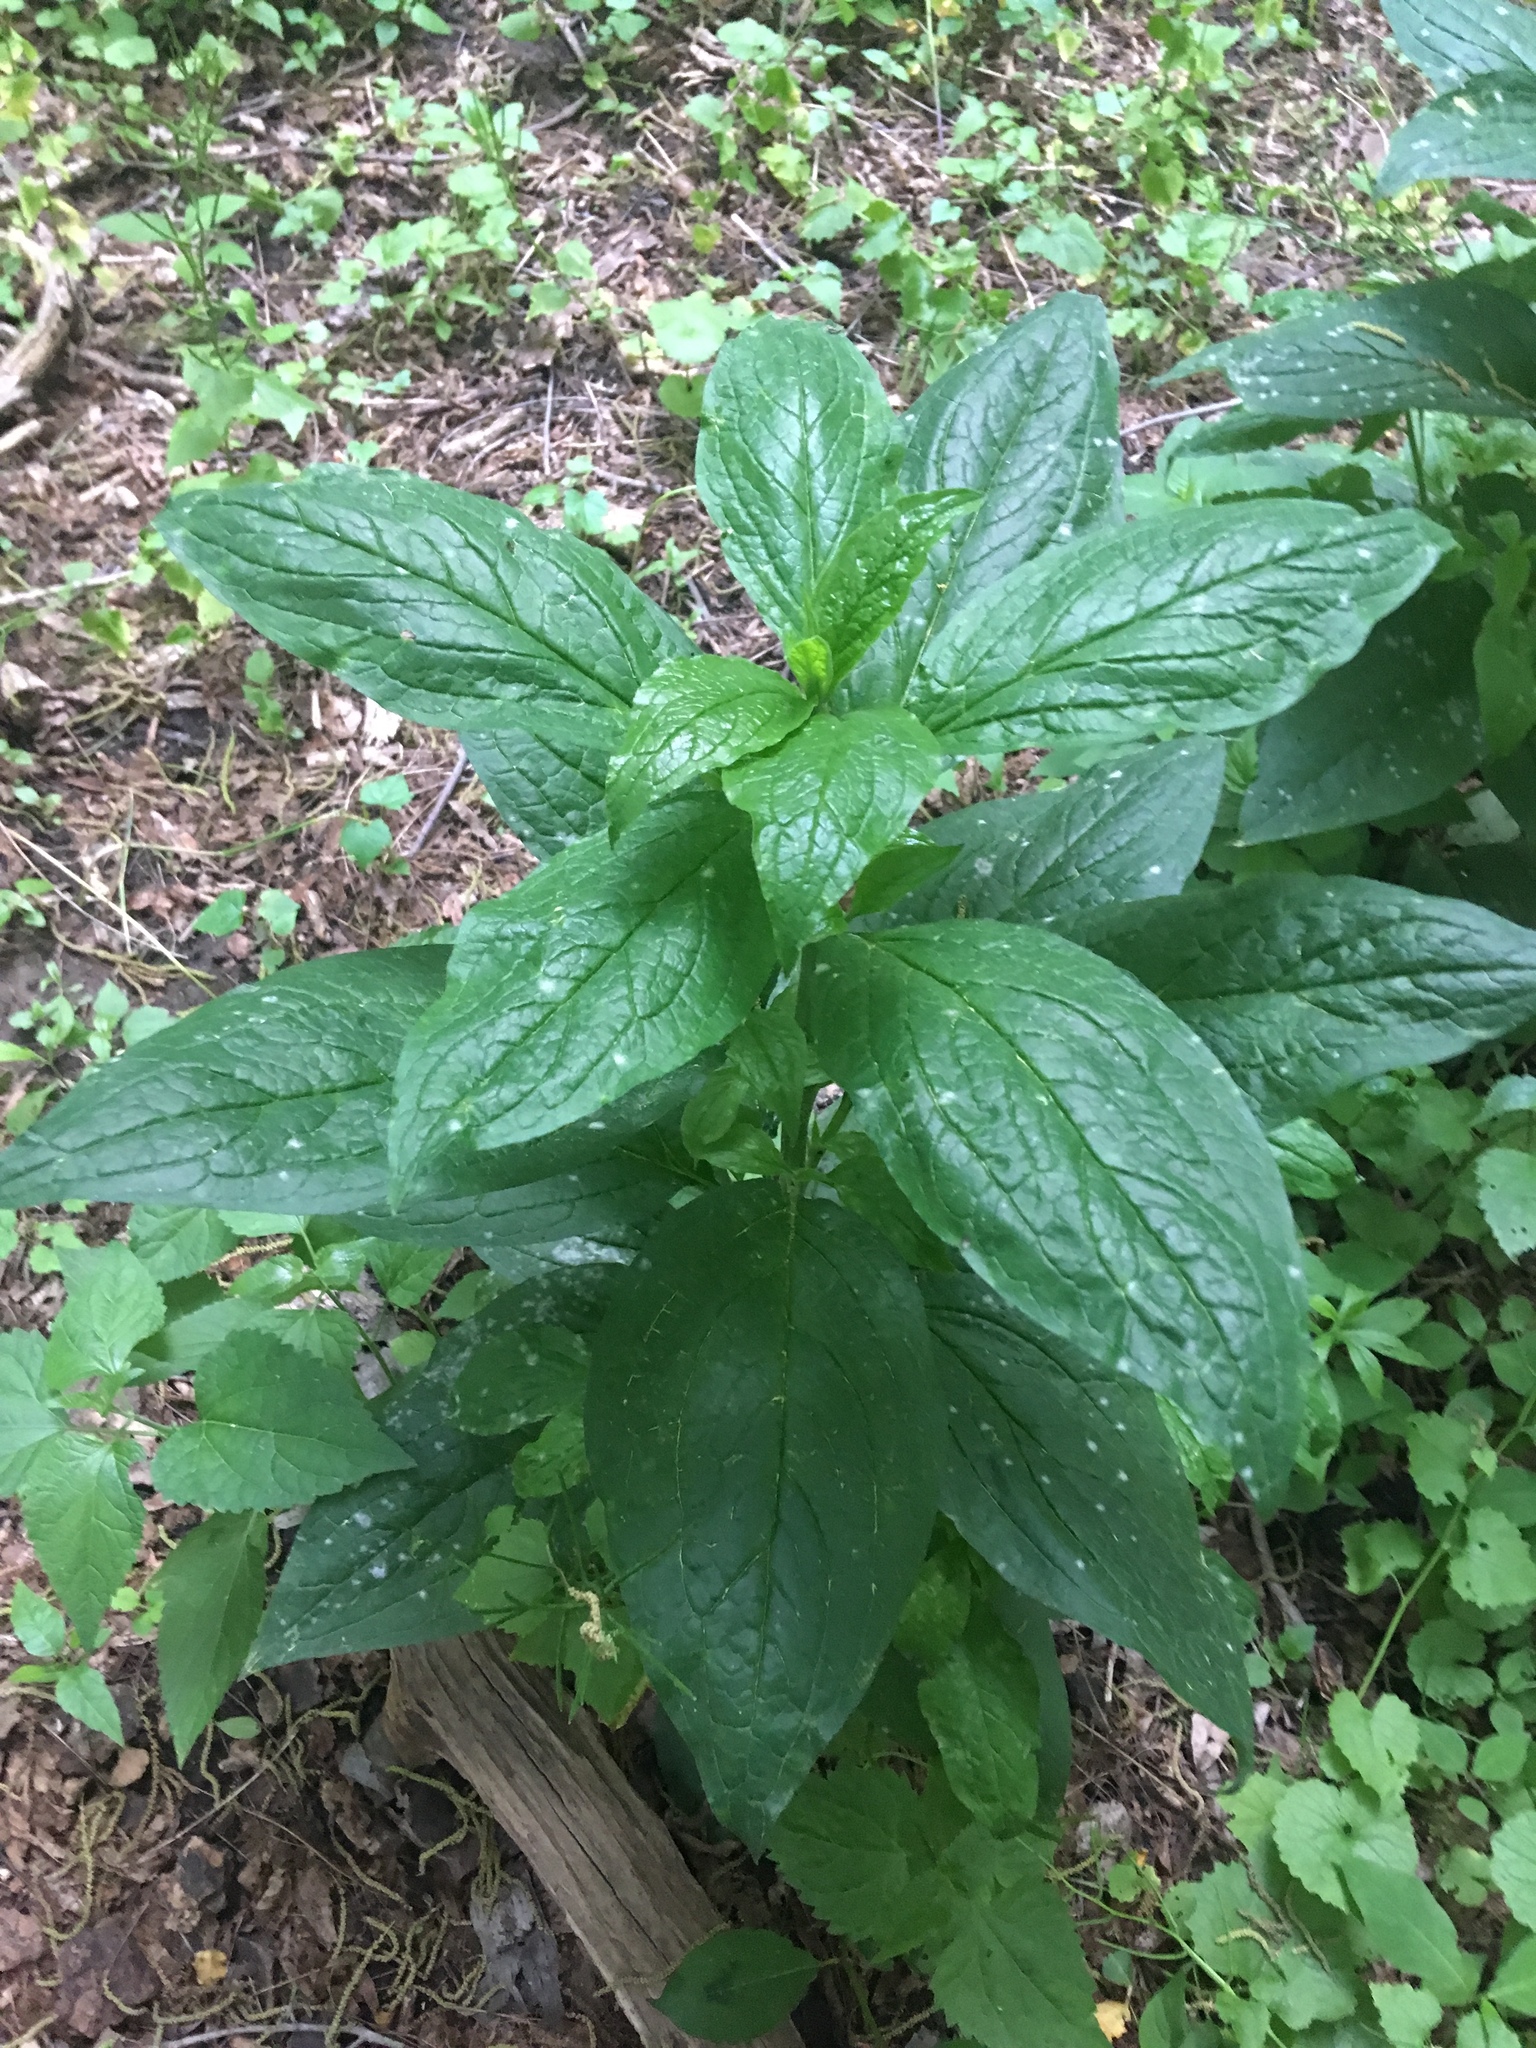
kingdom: Plantae
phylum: Tracheophyta
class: Magnoliopsida
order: Boraginales
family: Boraginaceae
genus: Hackelia
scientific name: Hackelia virginiana
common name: Beggar's-lice
